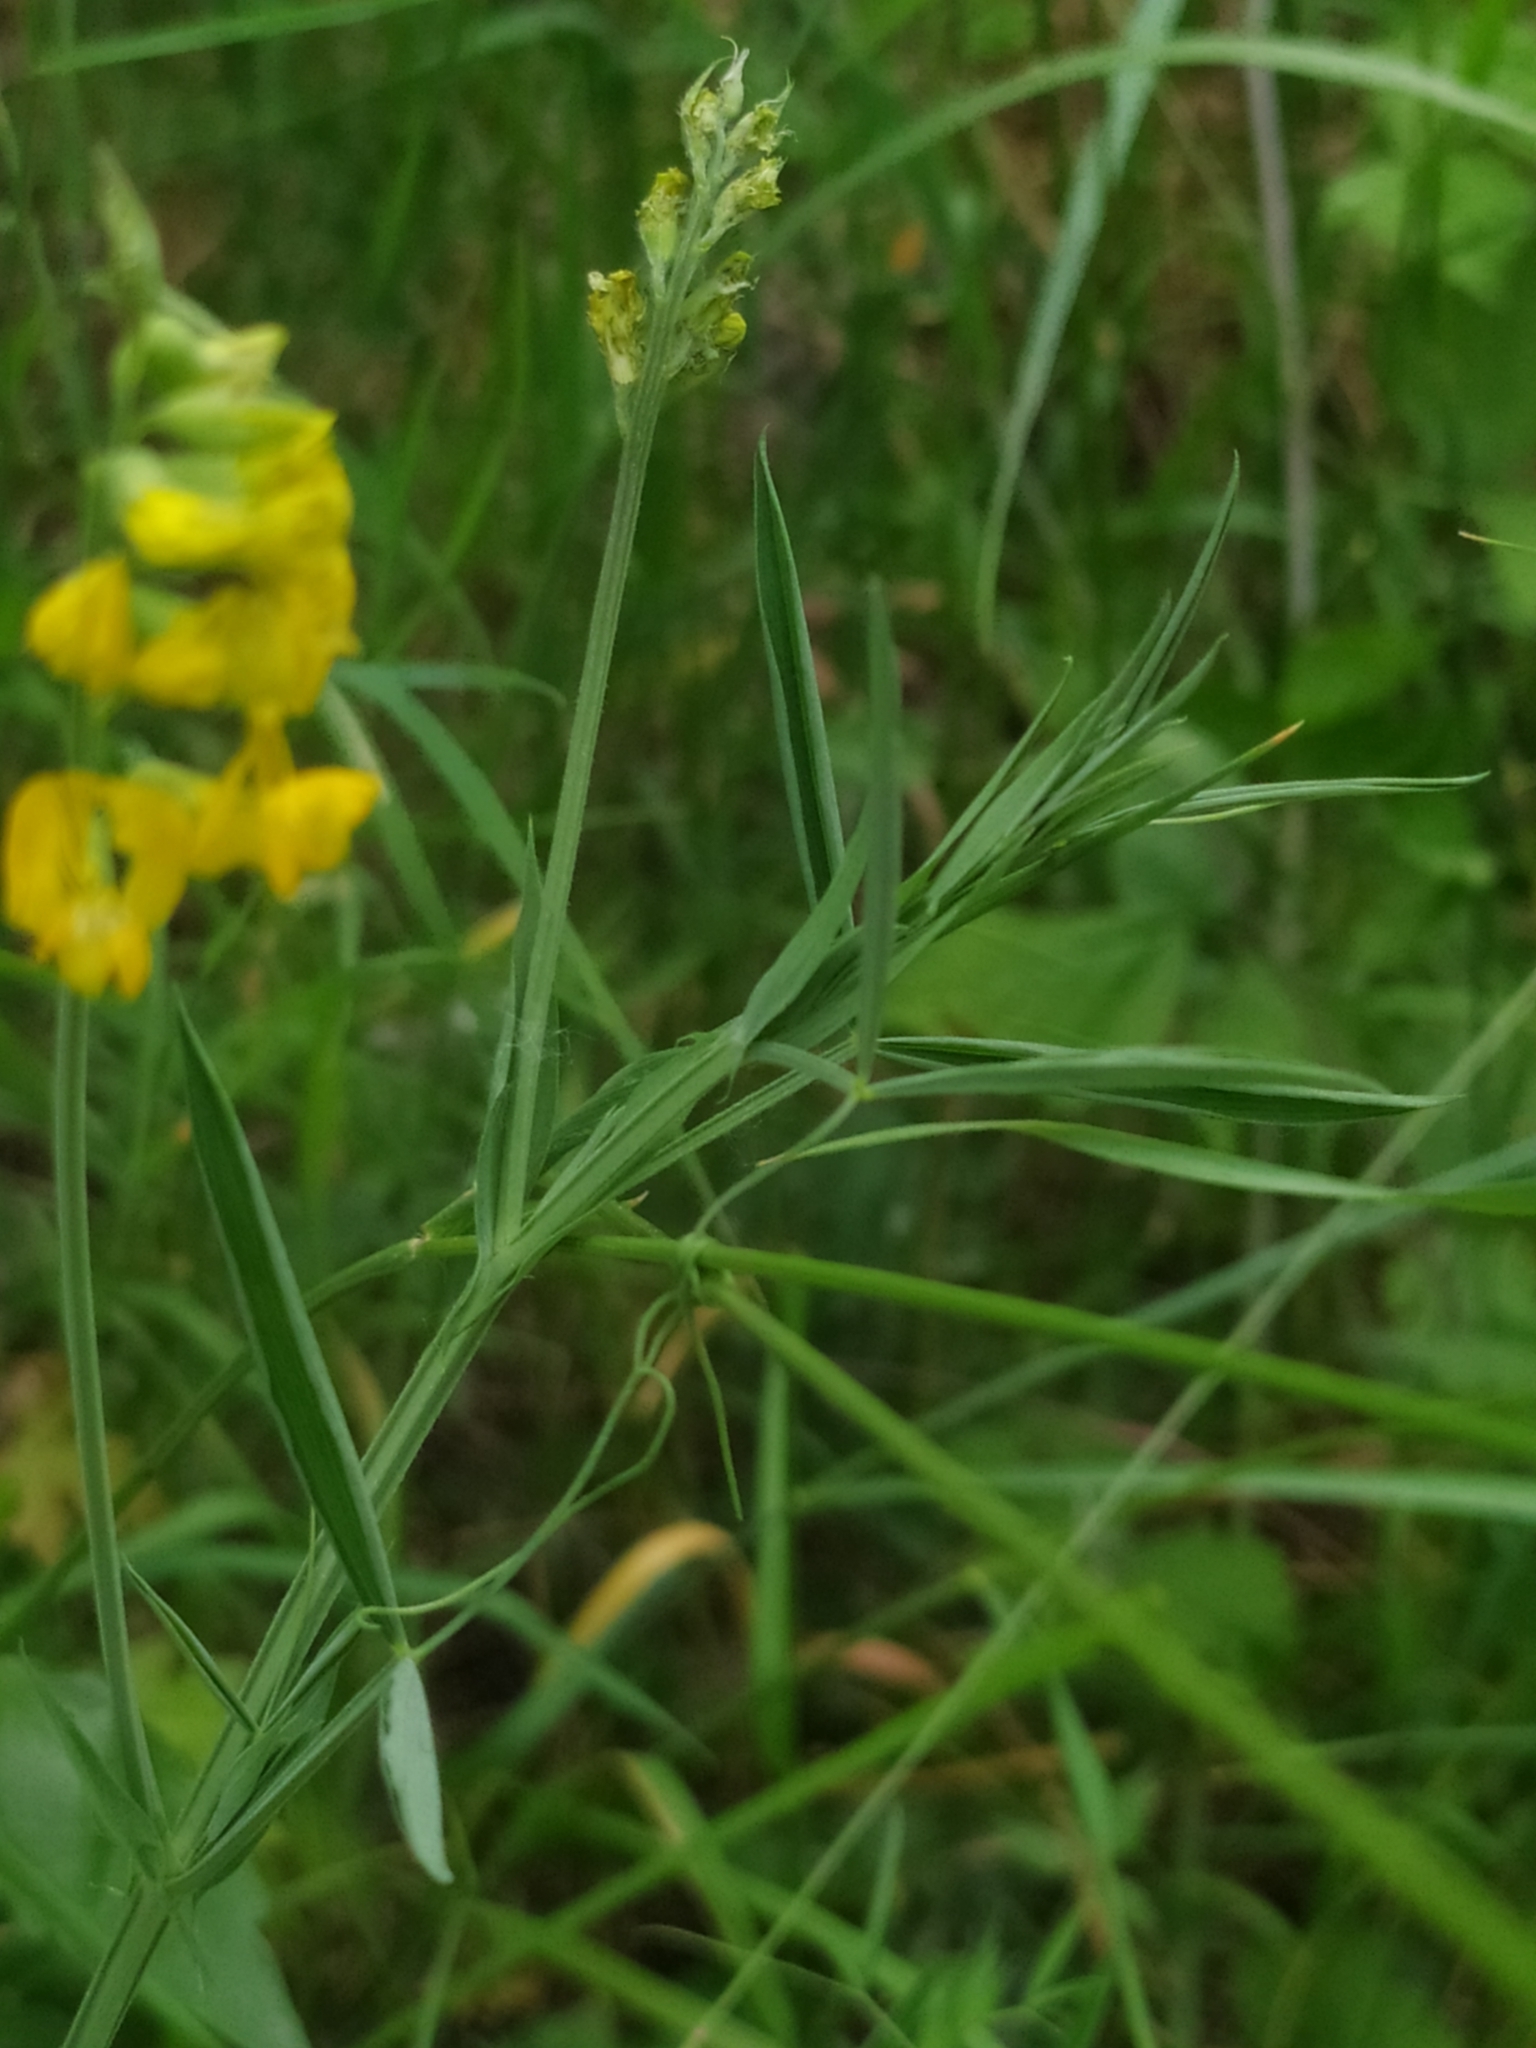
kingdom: Plantae
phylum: Tracheophyta
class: Magnoliopsida
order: Fabales
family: Fabaceae
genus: Lathyrus
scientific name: Lathyrus pratensis
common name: Meadow vetchling
